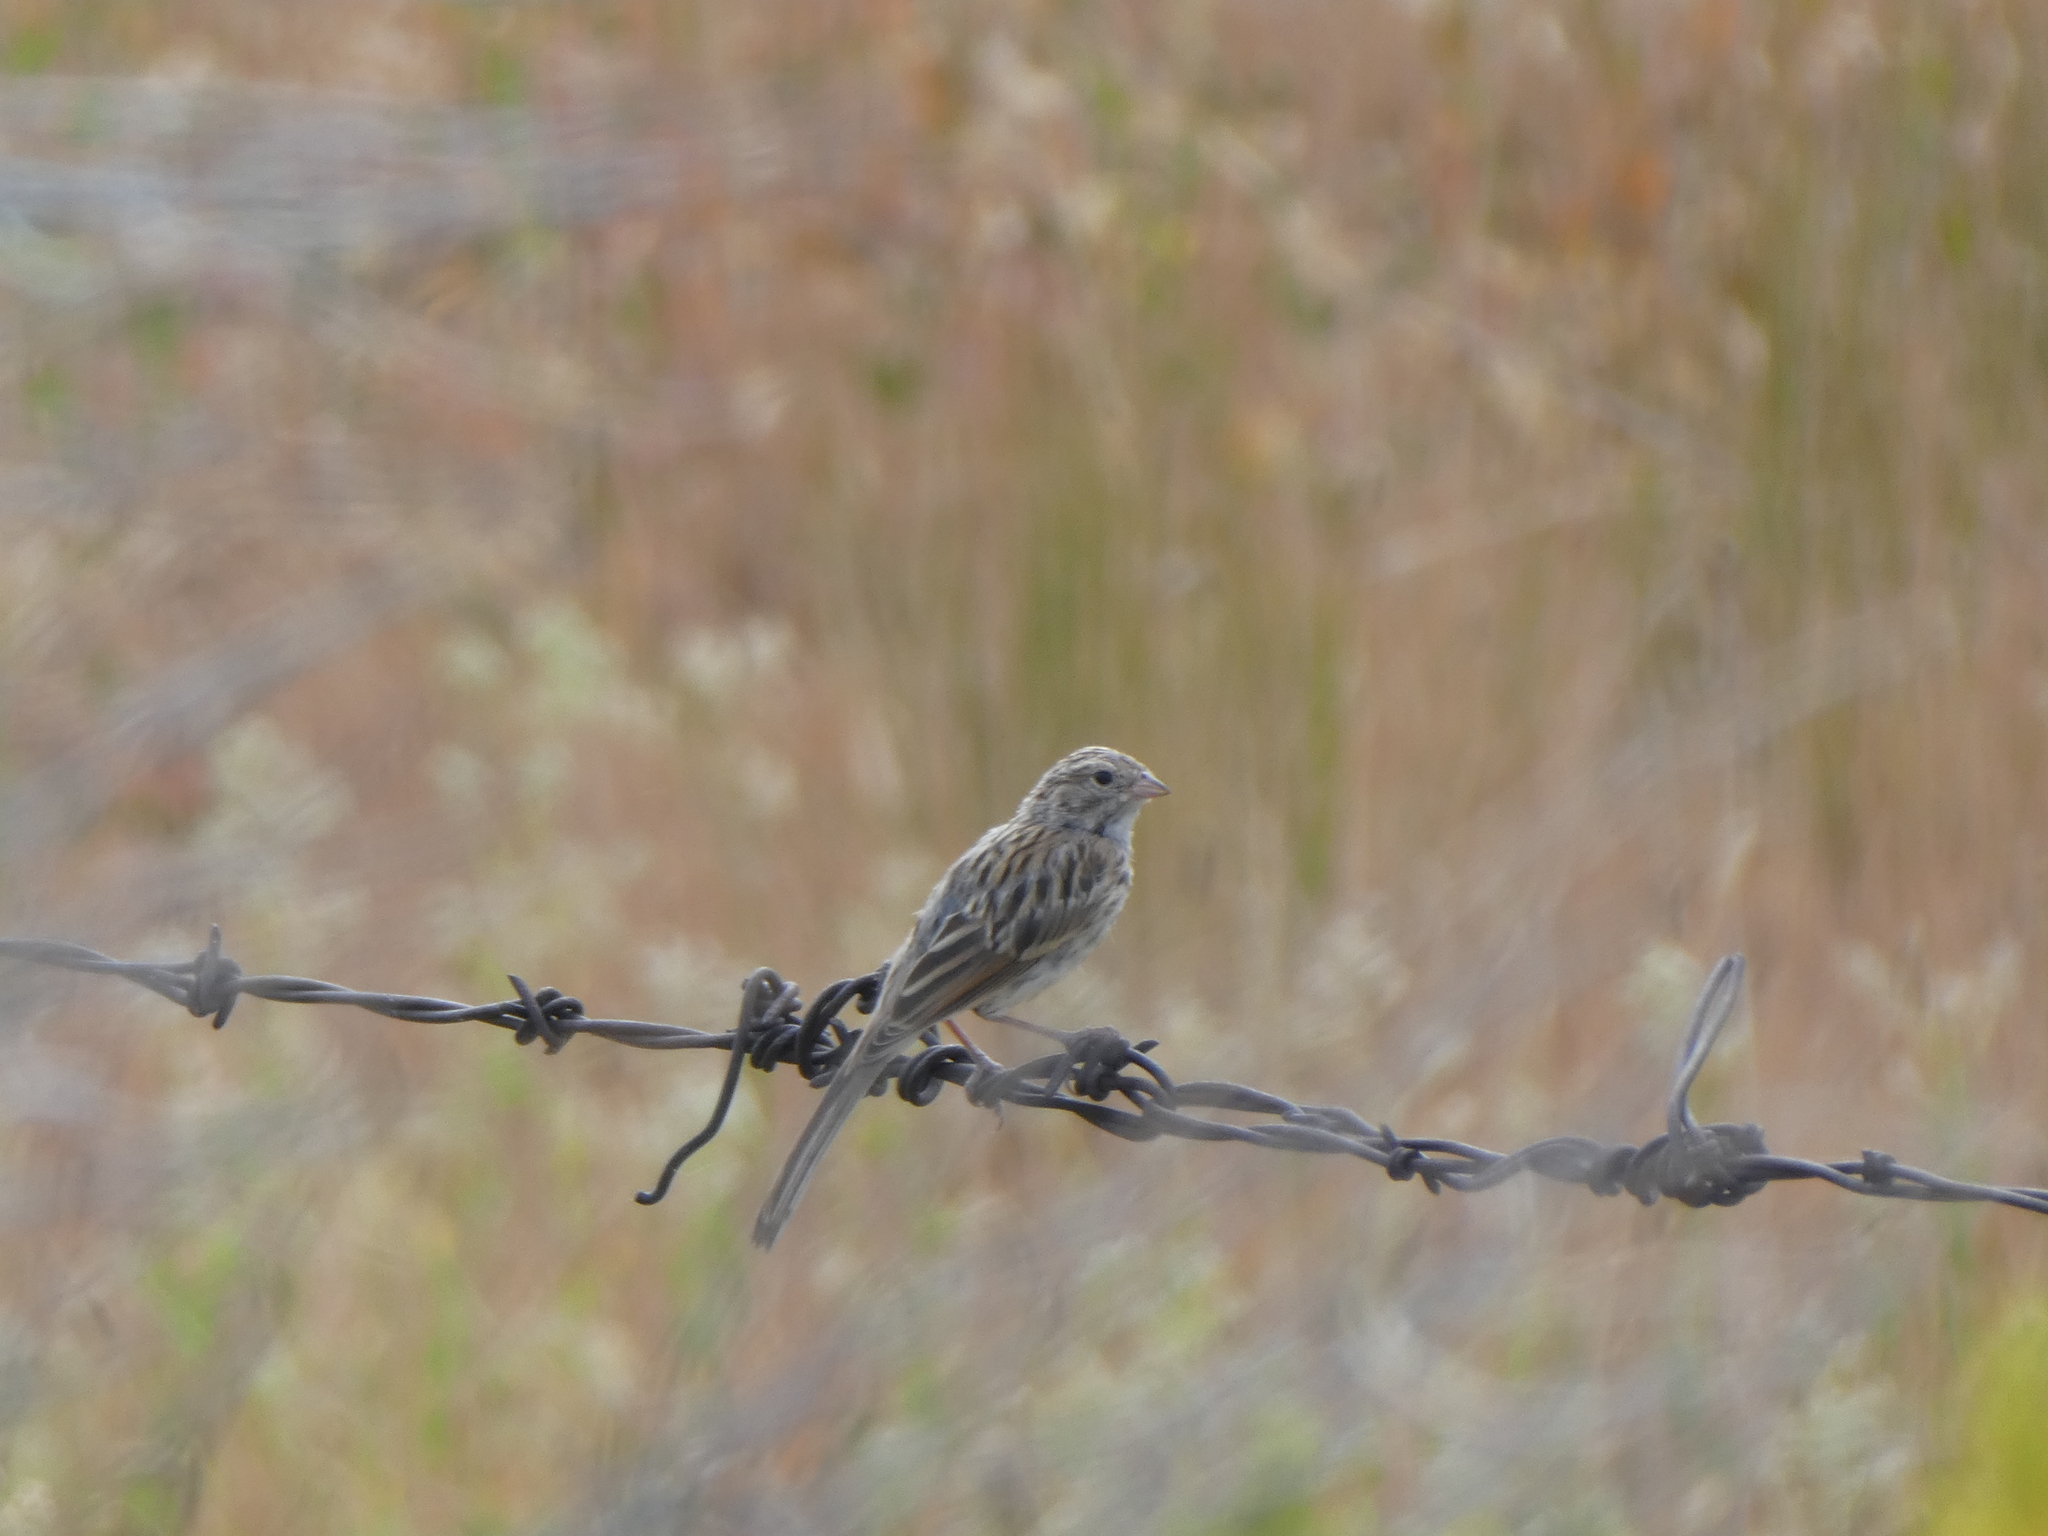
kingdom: Animalia
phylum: Chordata
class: Aves
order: Passeriformes
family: Passerellidae
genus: Spizella
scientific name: Spizella breweri
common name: Brewer's sparrow
